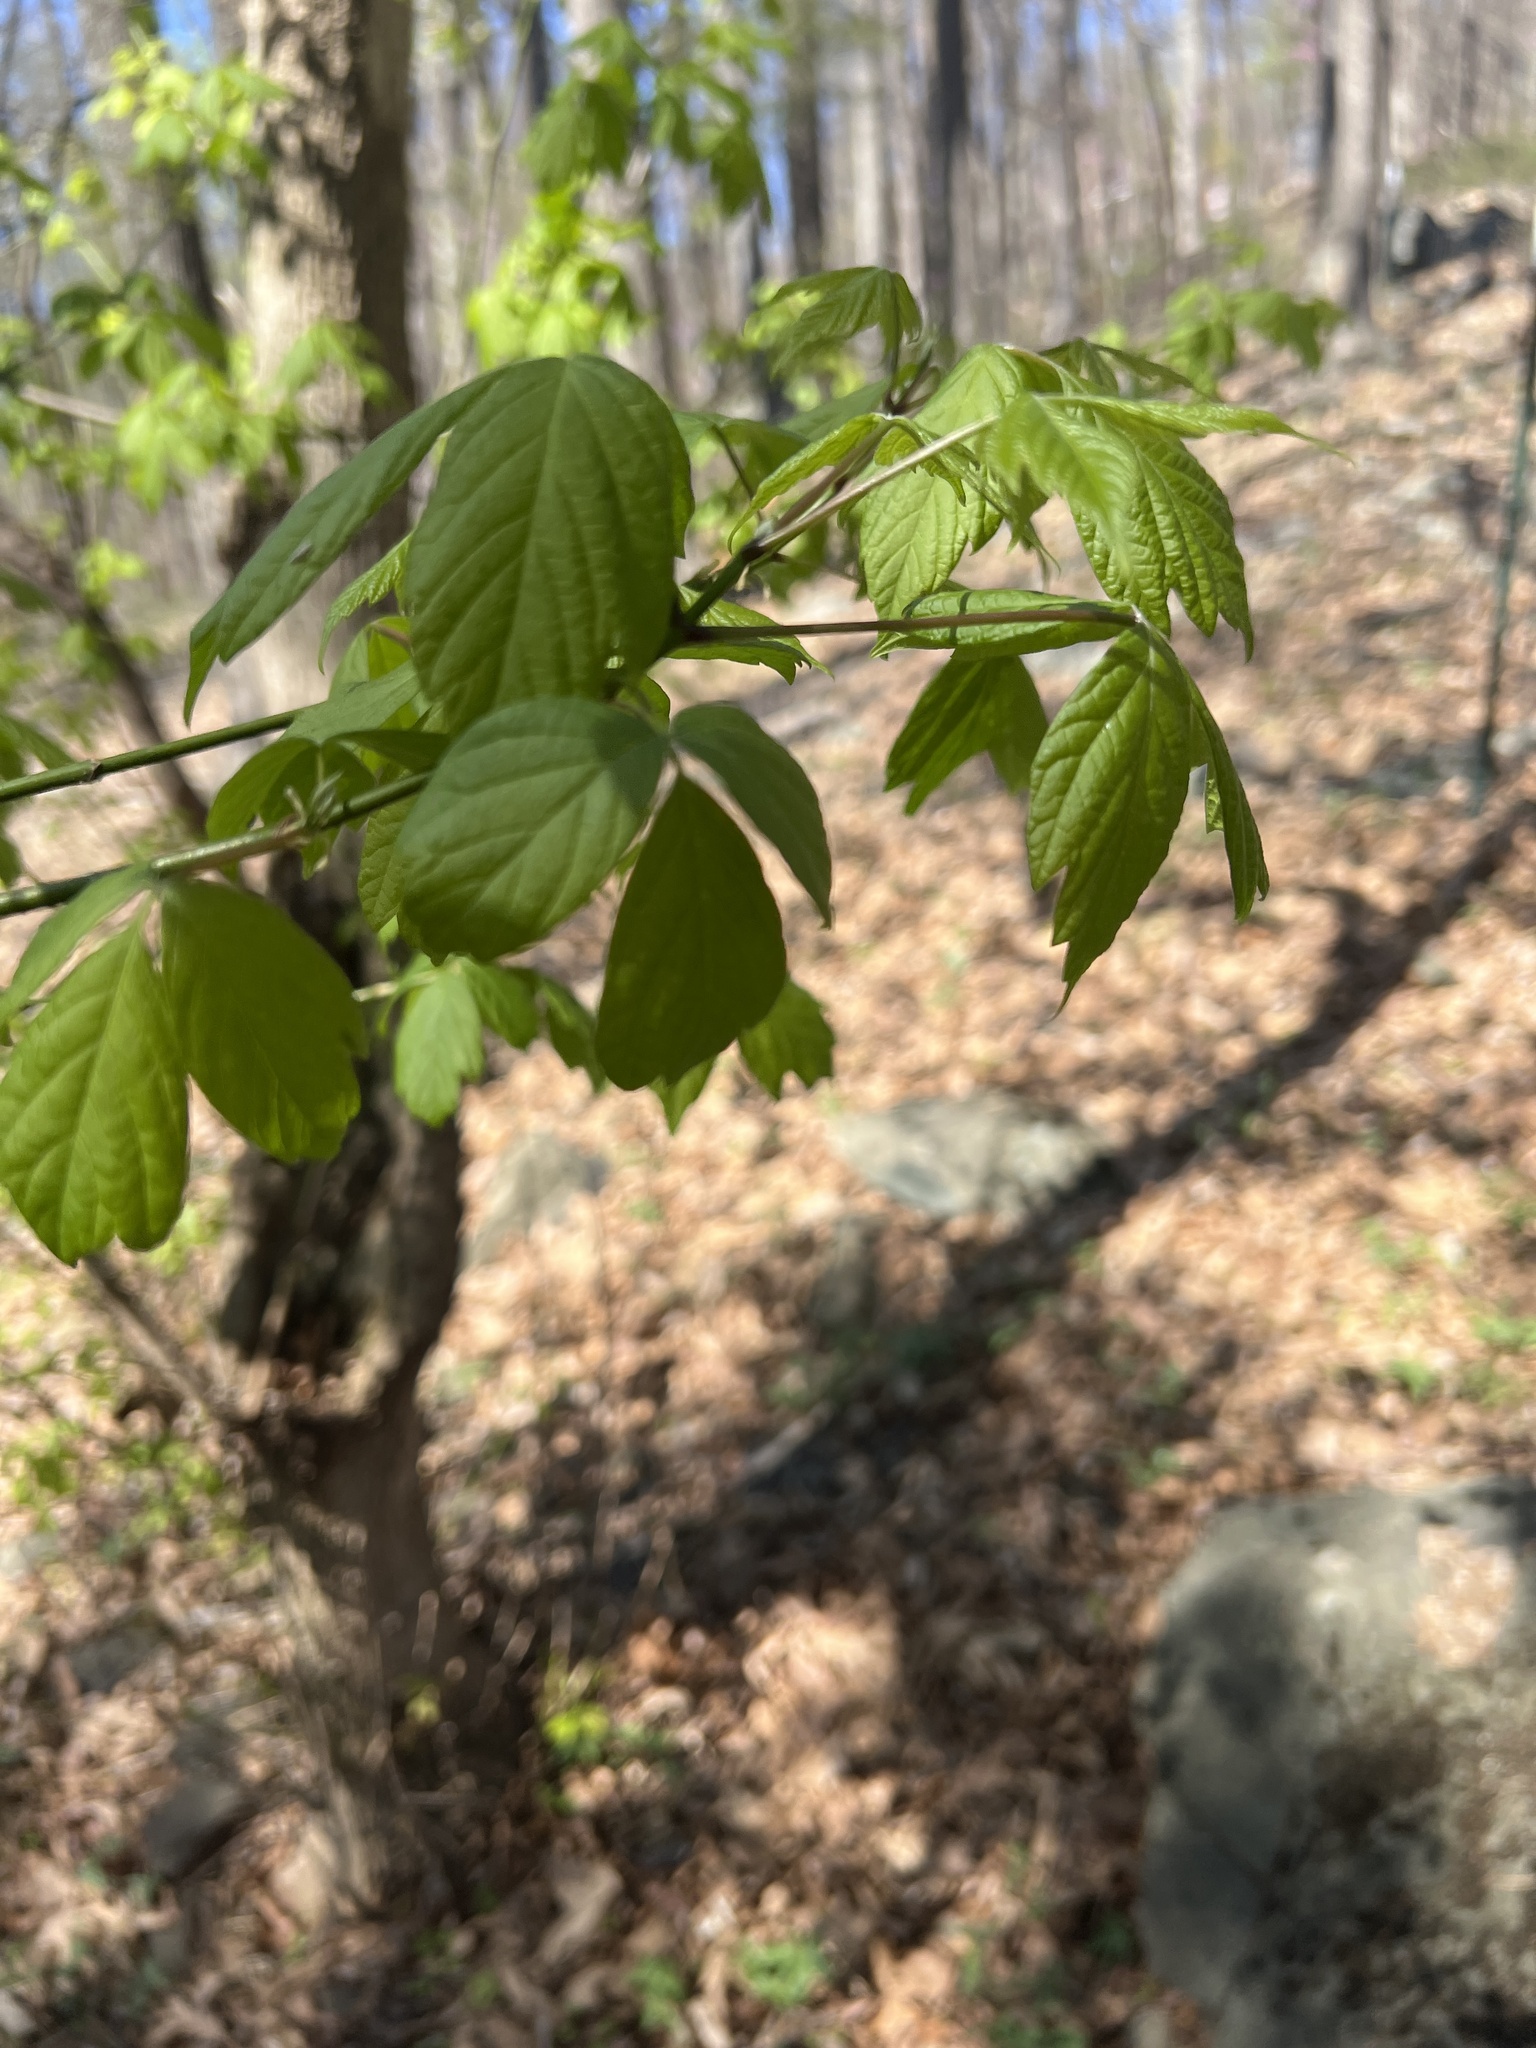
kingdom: Plantae
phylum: Tracheophyta
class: Magnoliopsida
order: Sapindales
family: Sapindaceae
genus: Acer
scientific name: Acer negundo
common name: Ashleaf maple
